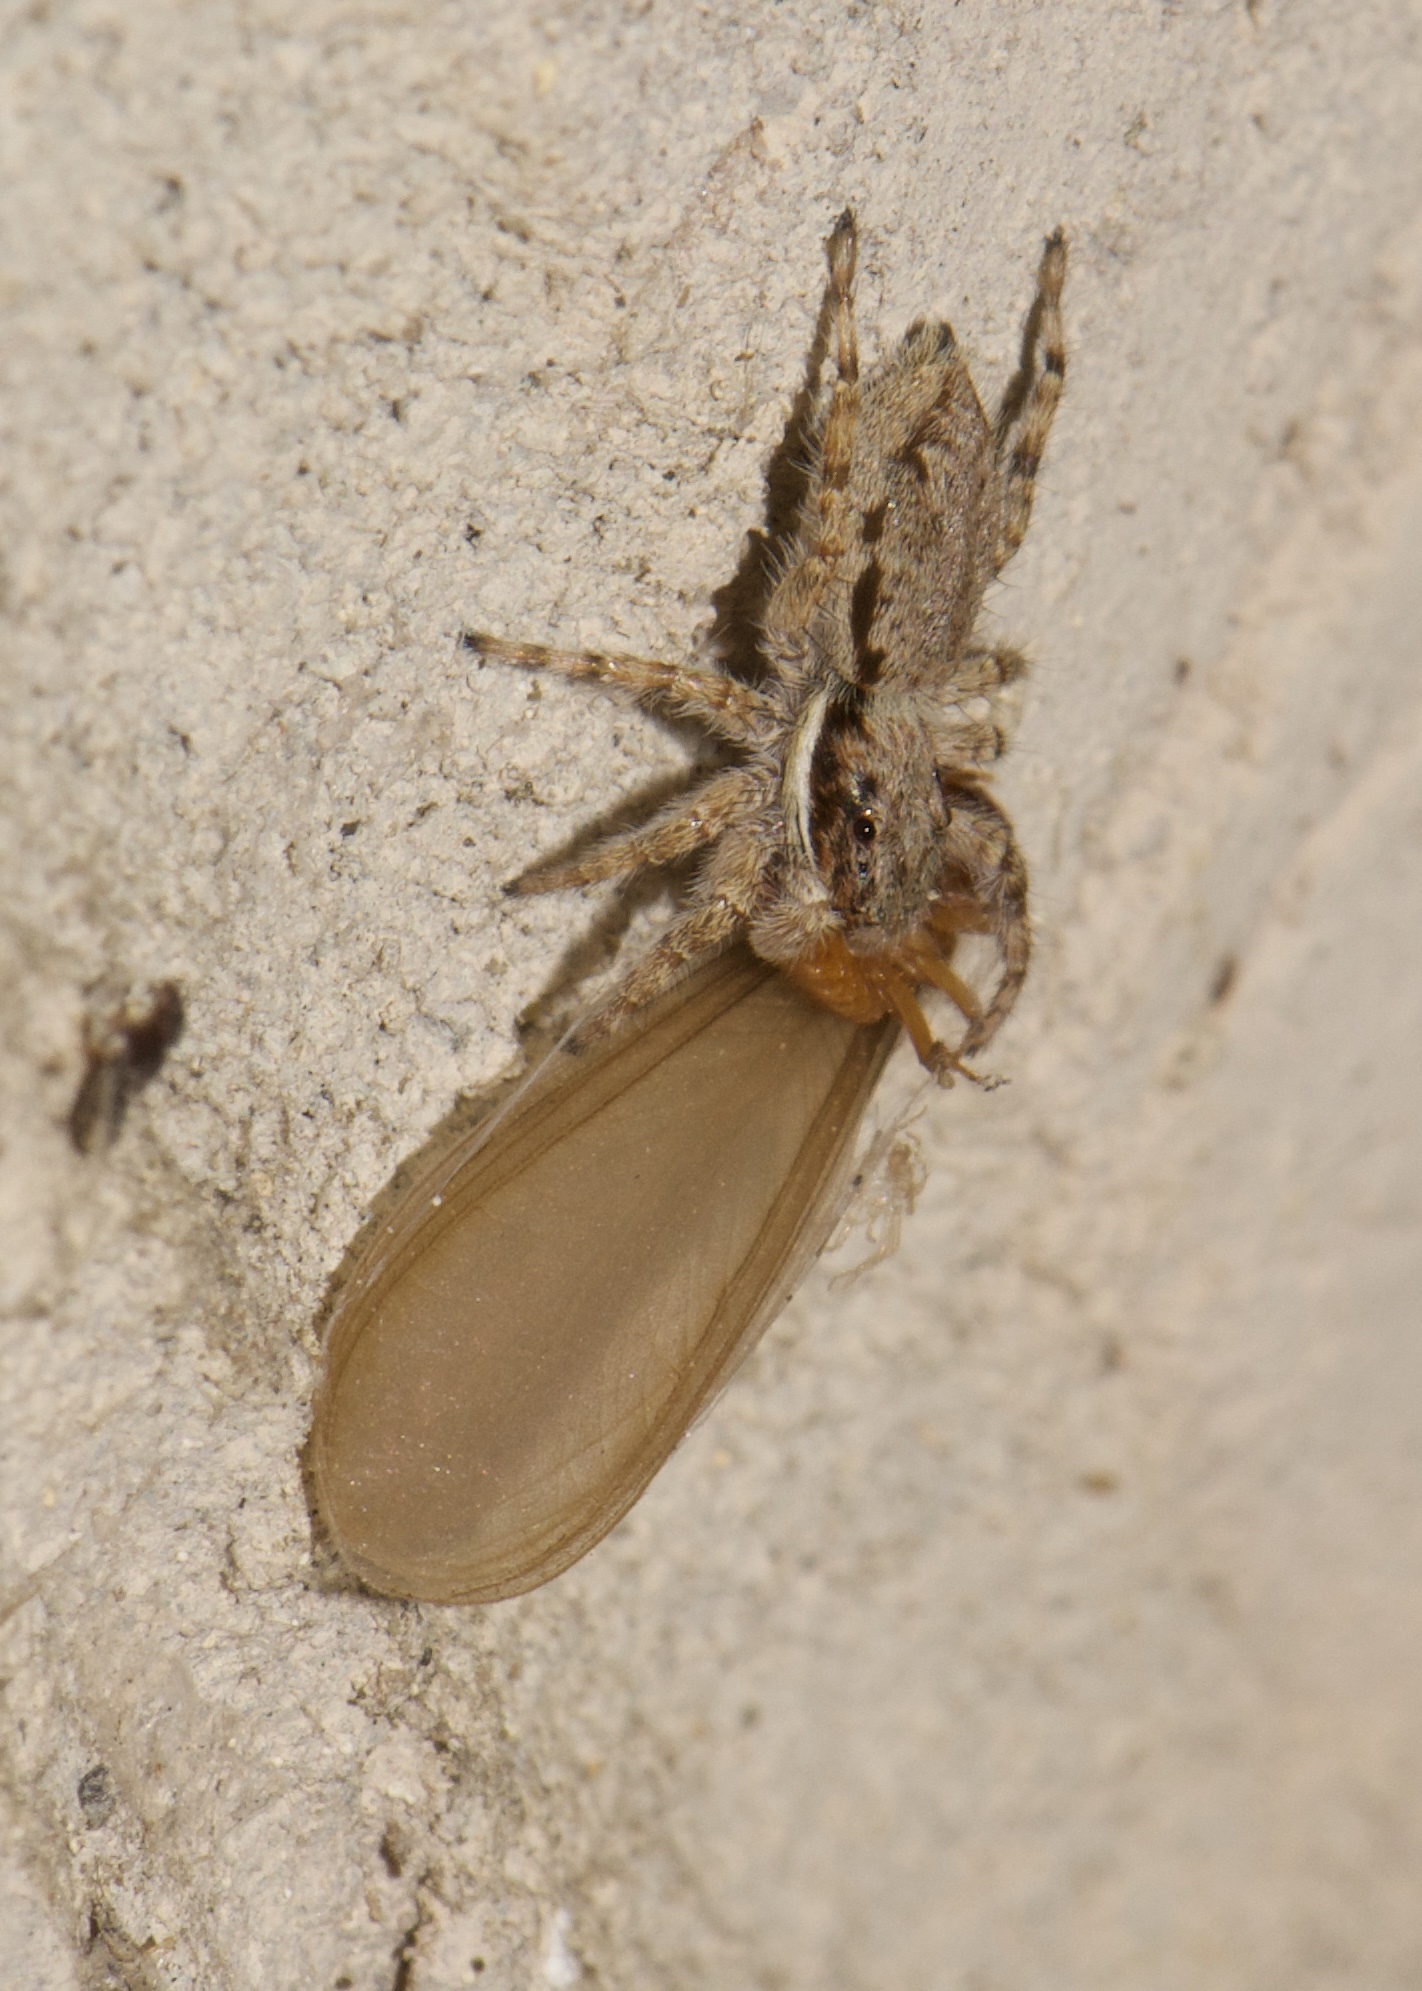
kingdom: Animalia
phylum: Arthropoda
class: Arachnida
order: Araneae
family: Salticidae
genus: Menemerus
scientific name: Menemerus bivittatus
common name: Gray wall jumper
